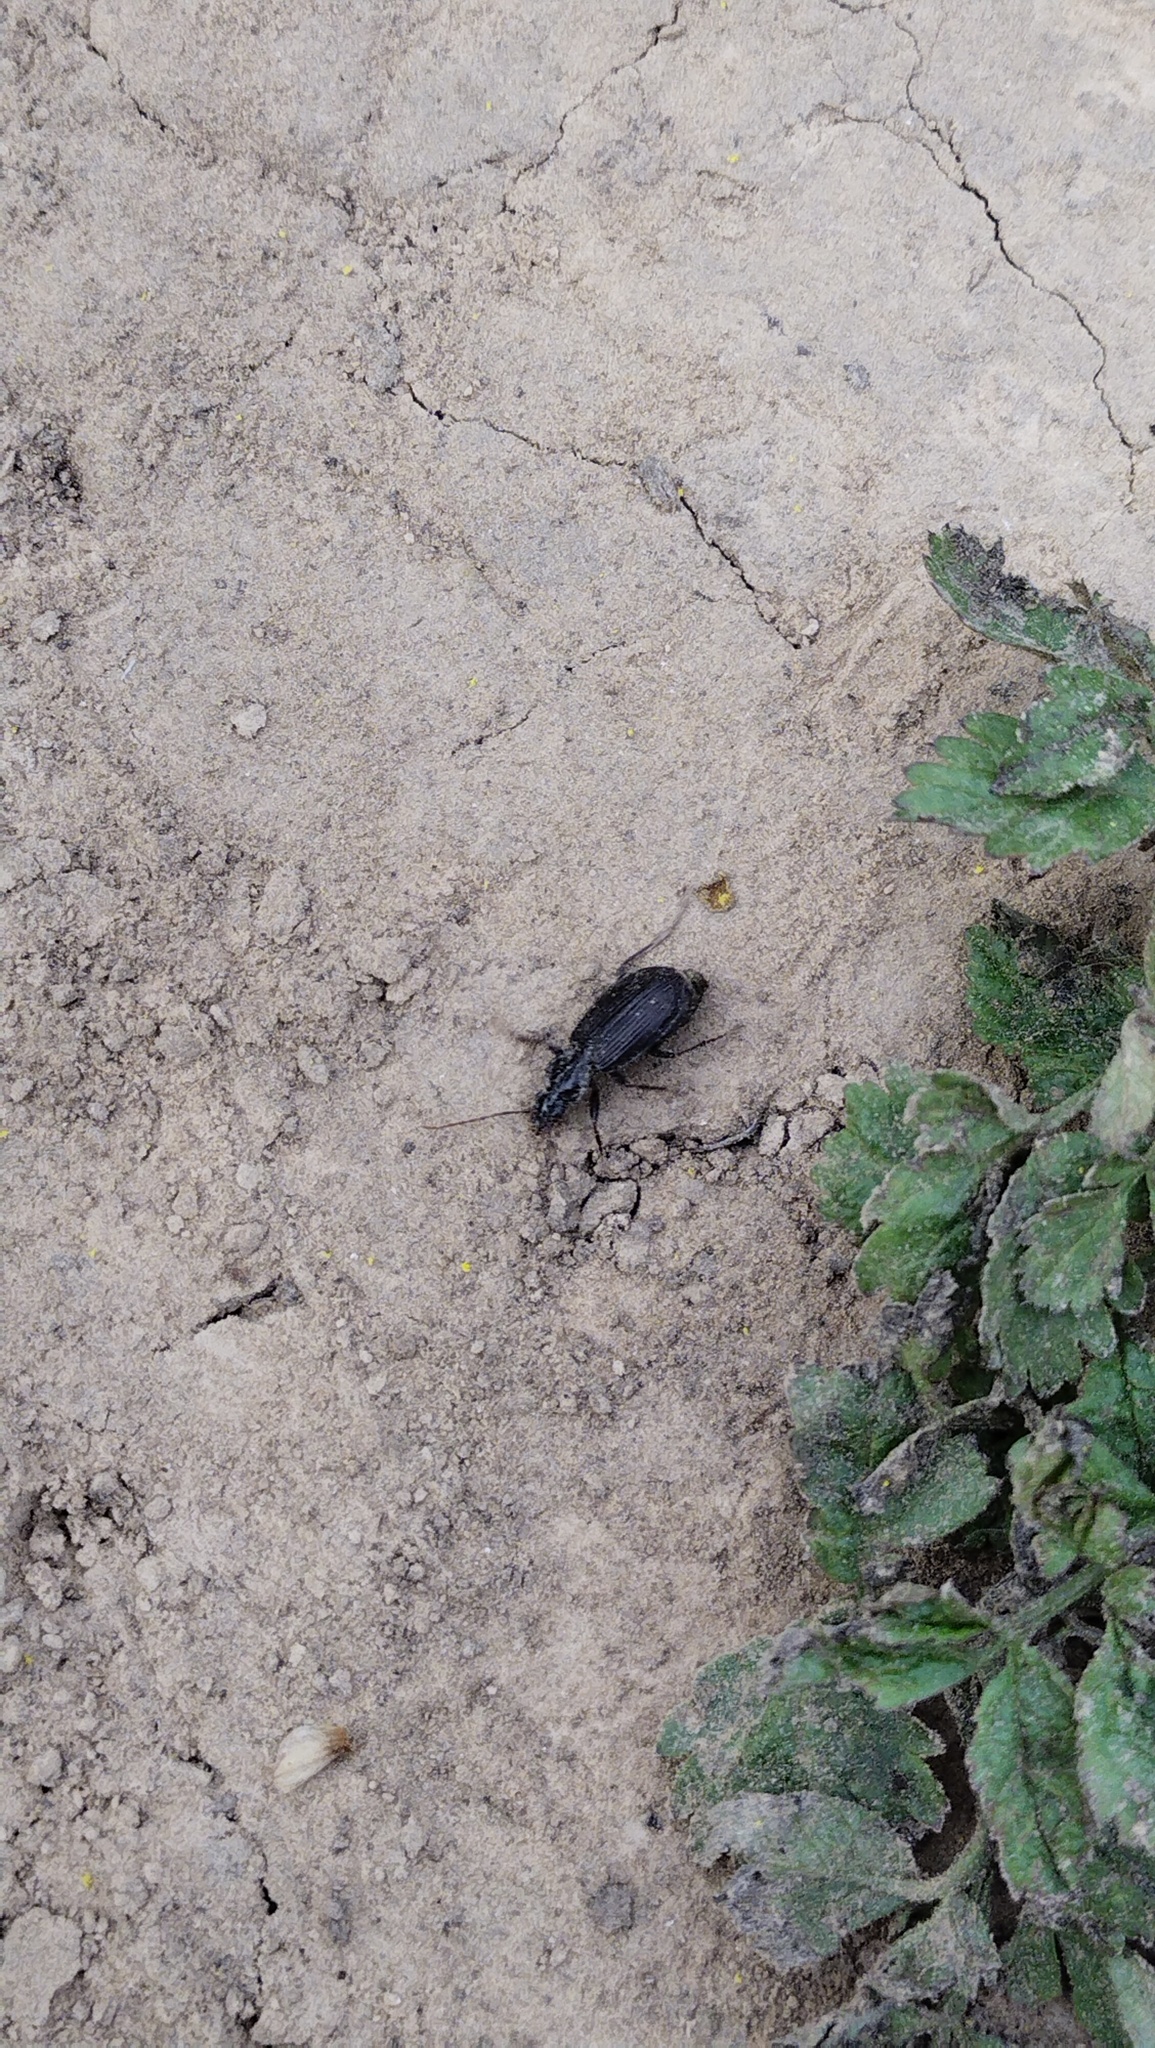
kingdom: Animalia
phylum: Arthropoda
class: Insecta
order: Coleoptera
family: Carabidae
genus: Platynus
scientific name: Platynus assimilis
